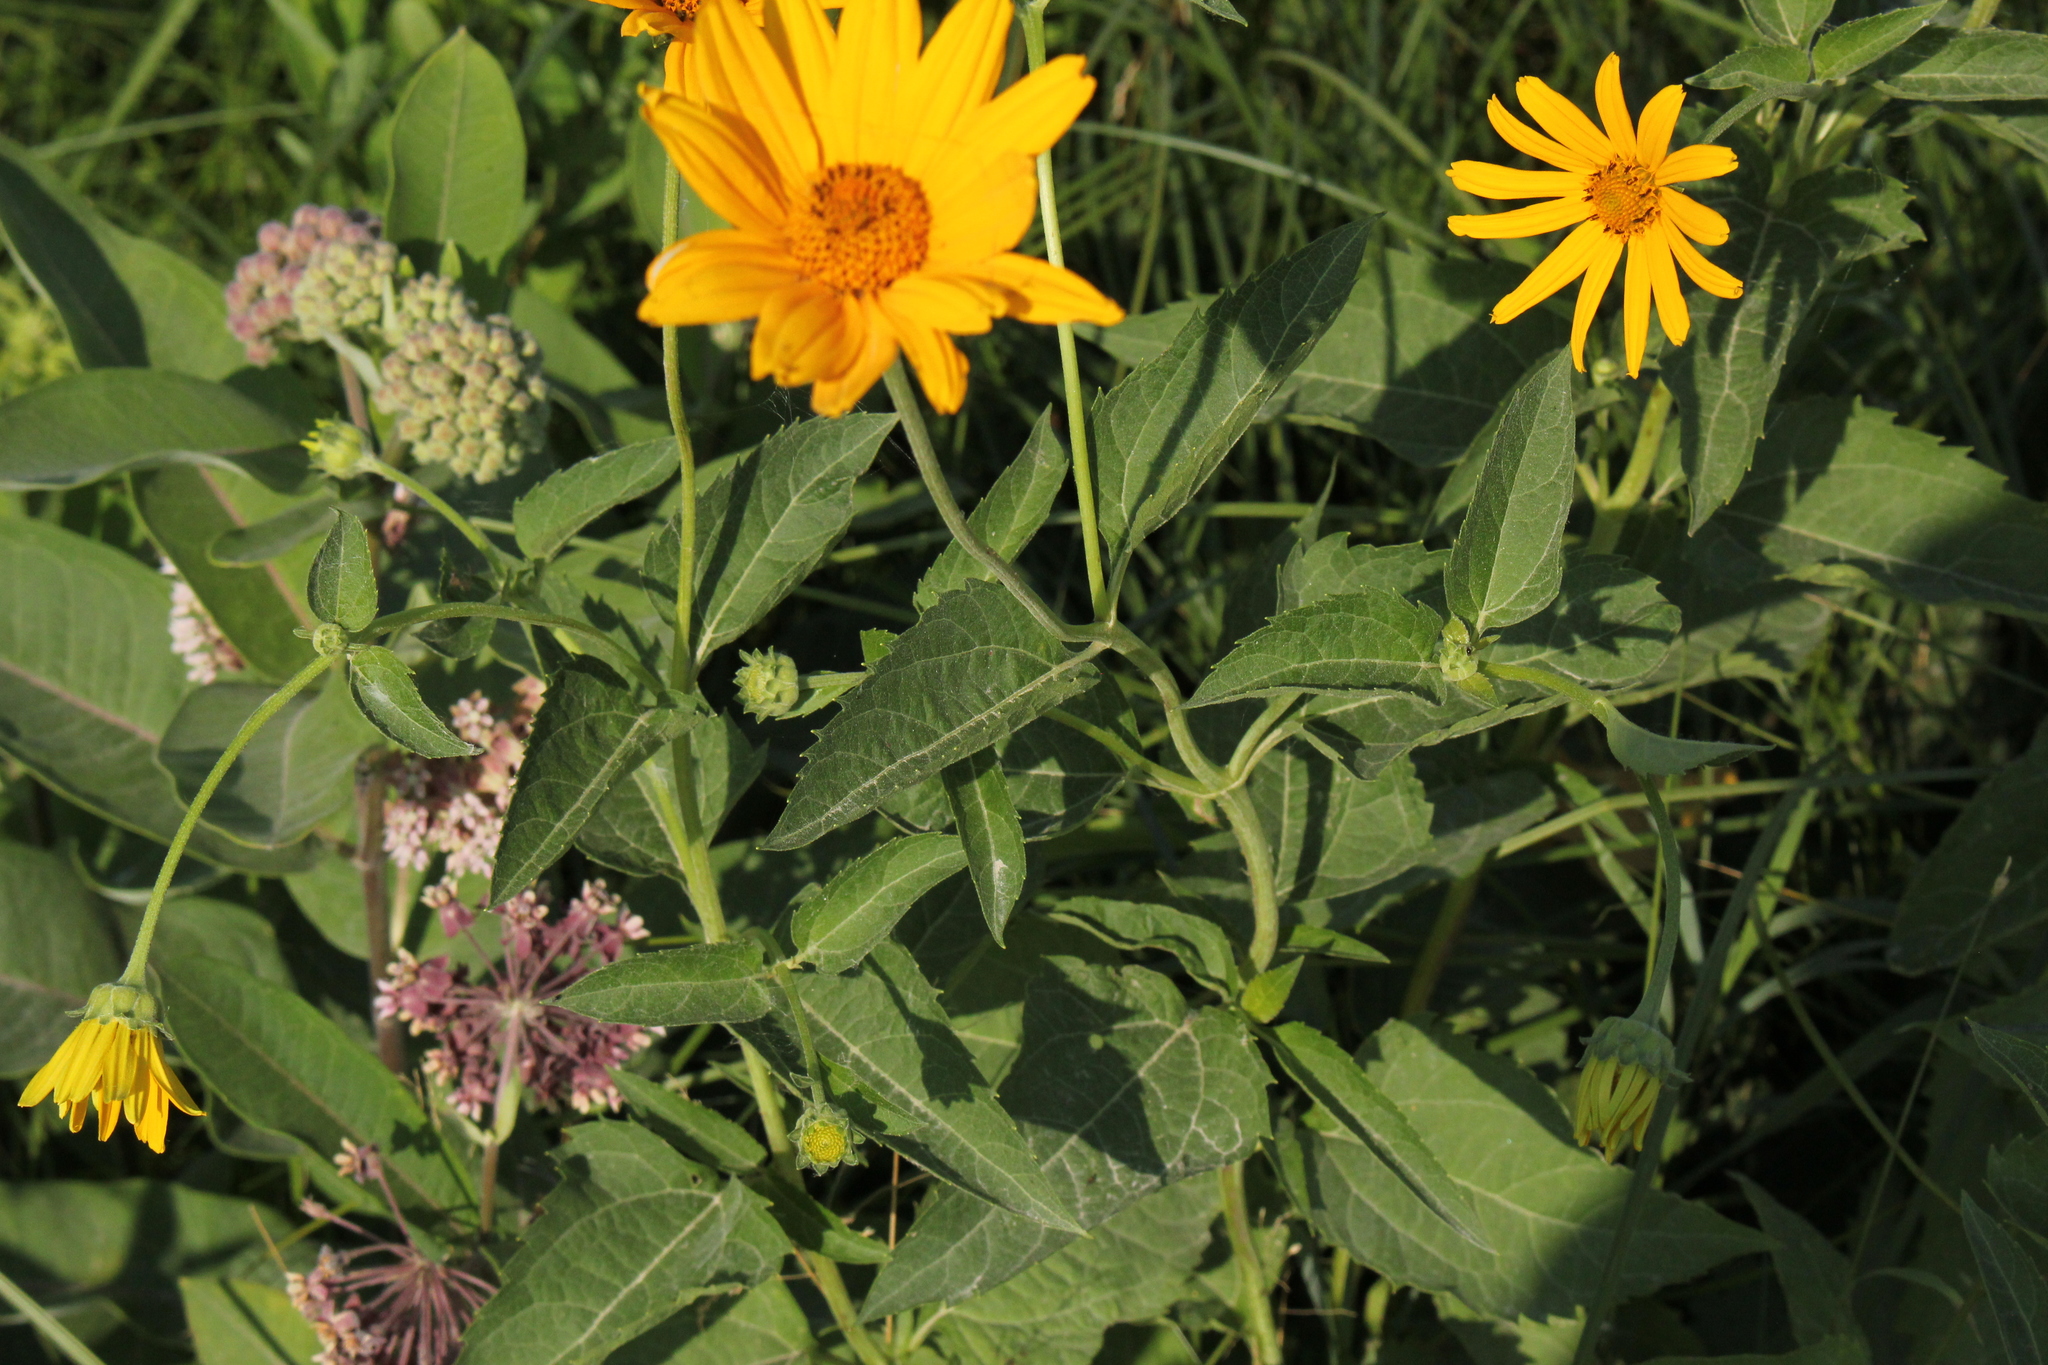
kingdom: Plantae
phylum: Tracheophyta
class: Magnoliopsida
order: Asterales
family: Asteraceae
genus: Heliopsis
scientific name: Heliopsis helianthoides
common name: False sunflower
